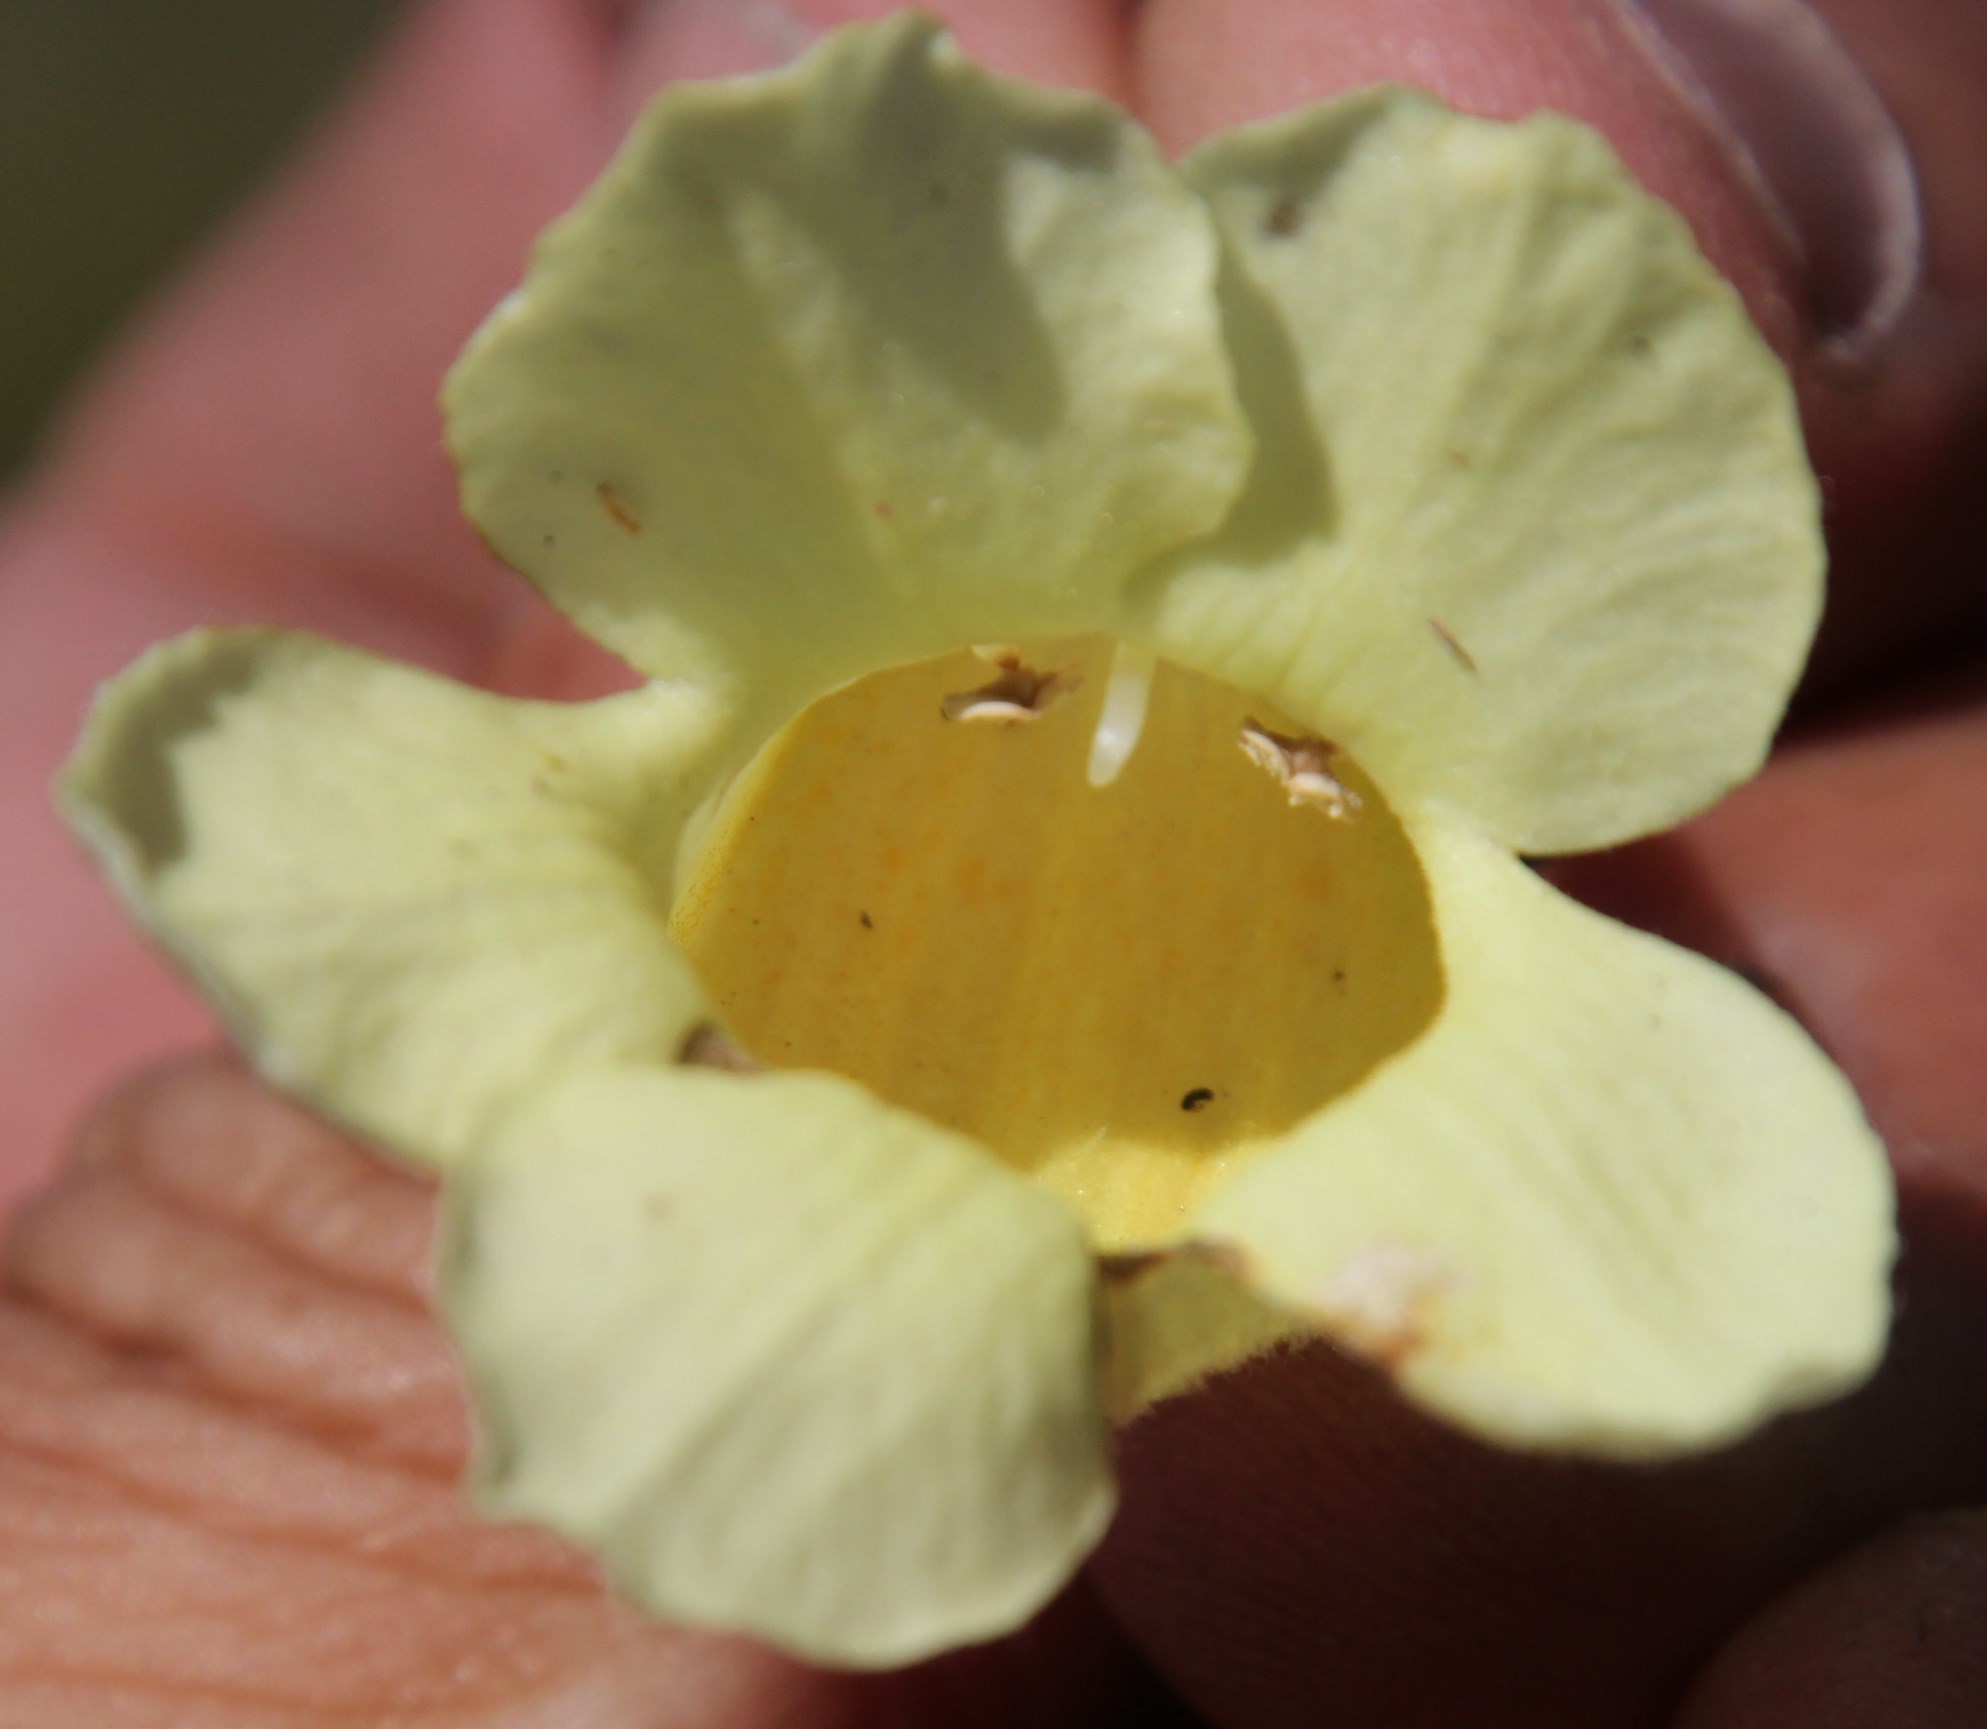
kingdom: Plantae
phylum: Tracheophyta
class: Magnoliopsida
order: Lamiales
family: Stilbaceae
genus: Ixianthes
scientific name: Ixianthes retzioides
